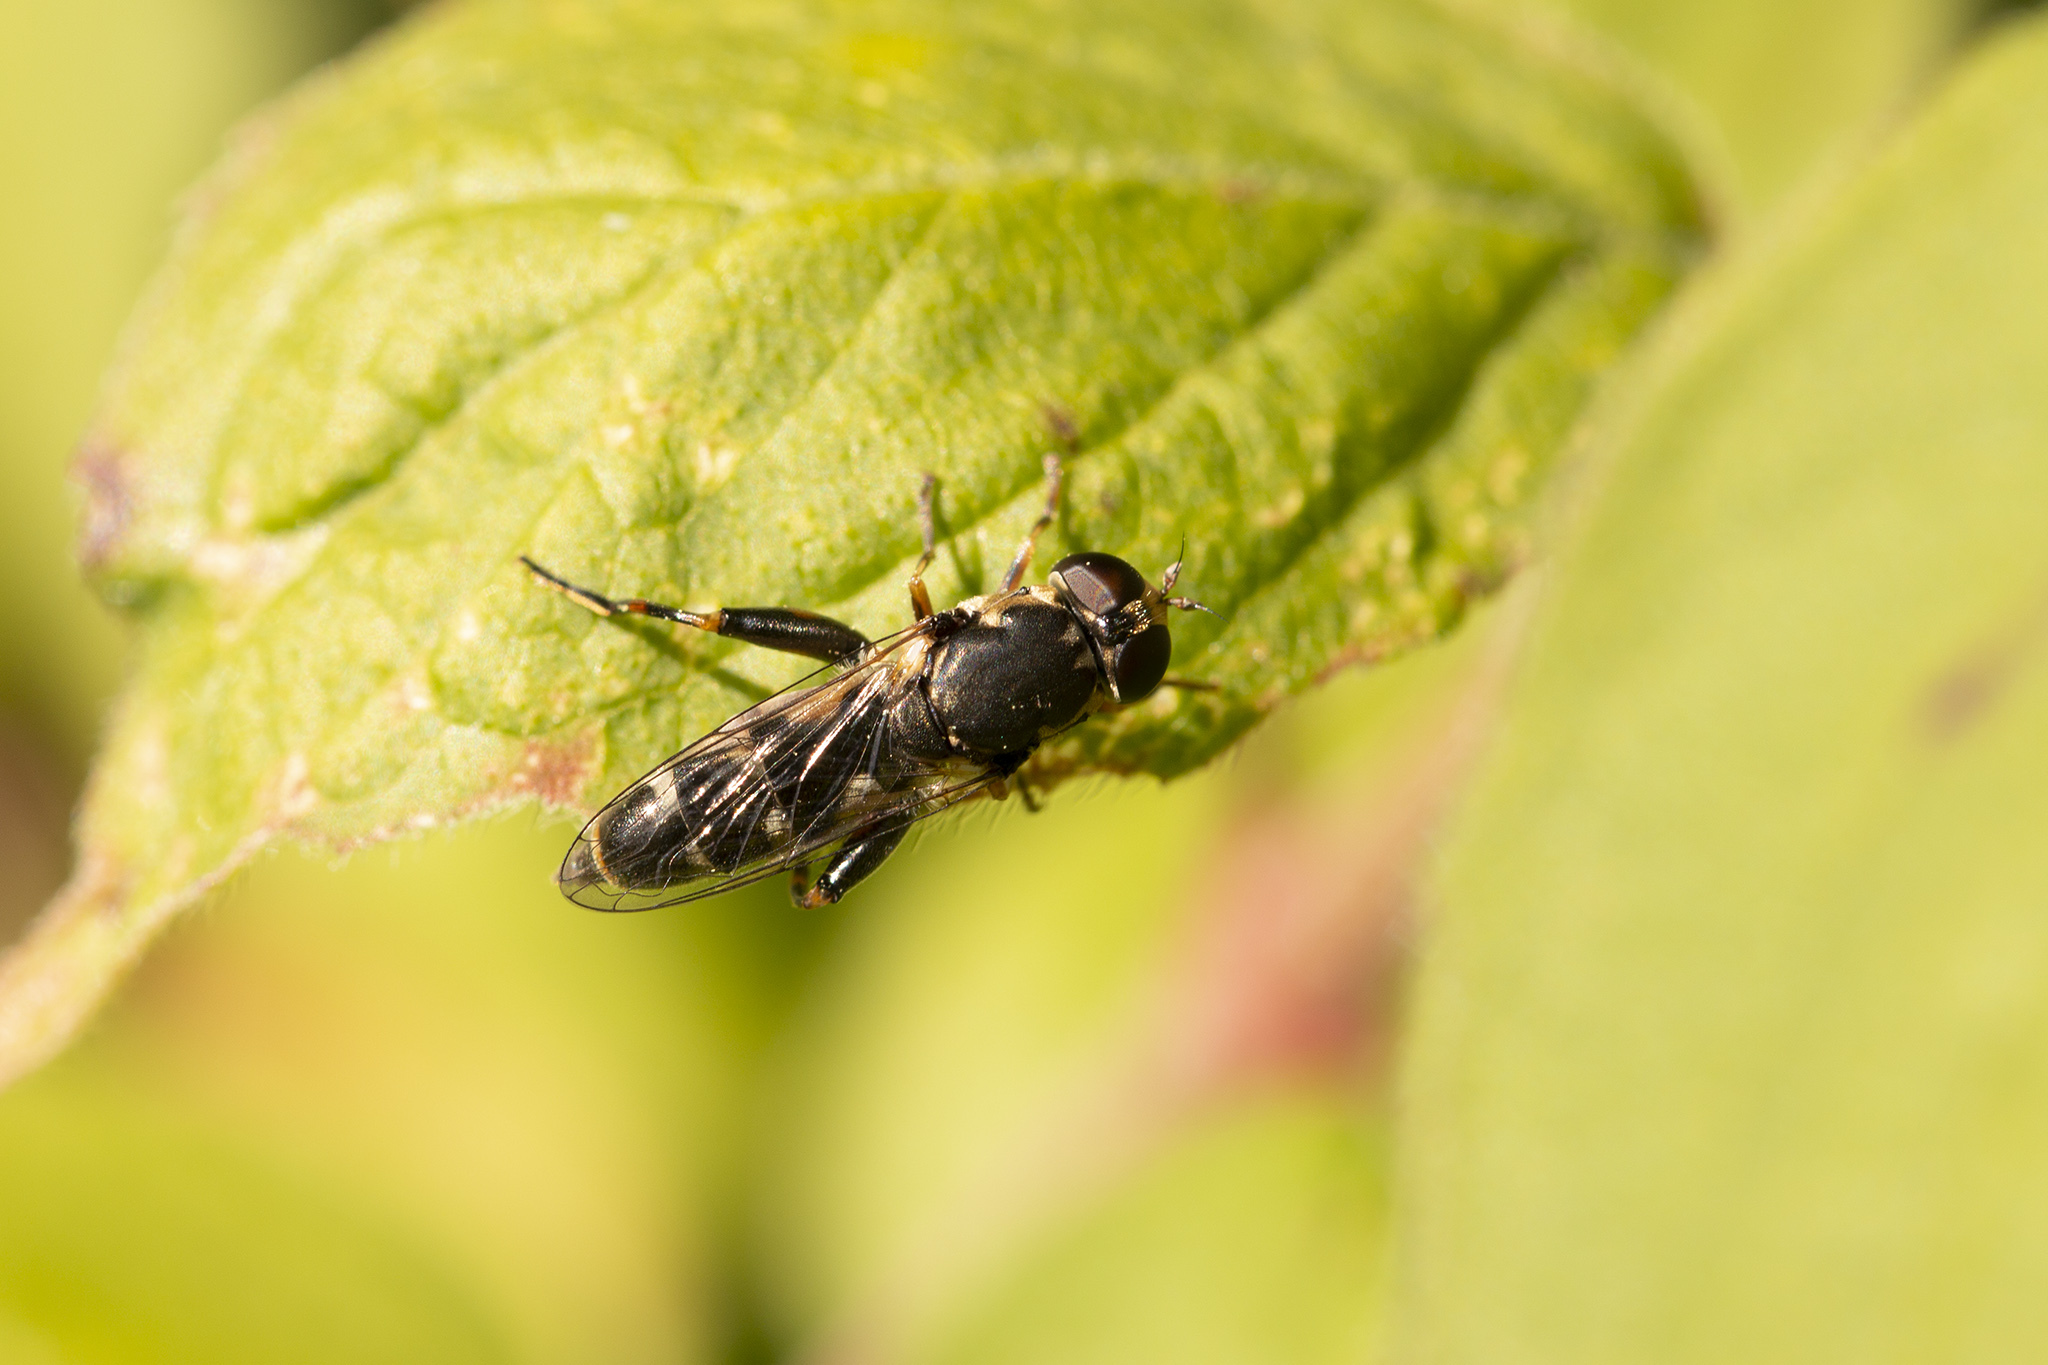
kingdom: Animalia
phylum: Arthropoda
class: Insecta
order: Diptera
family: Syrphidae
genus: Syritta
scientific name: Syritta pipiens
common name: Hover fly
